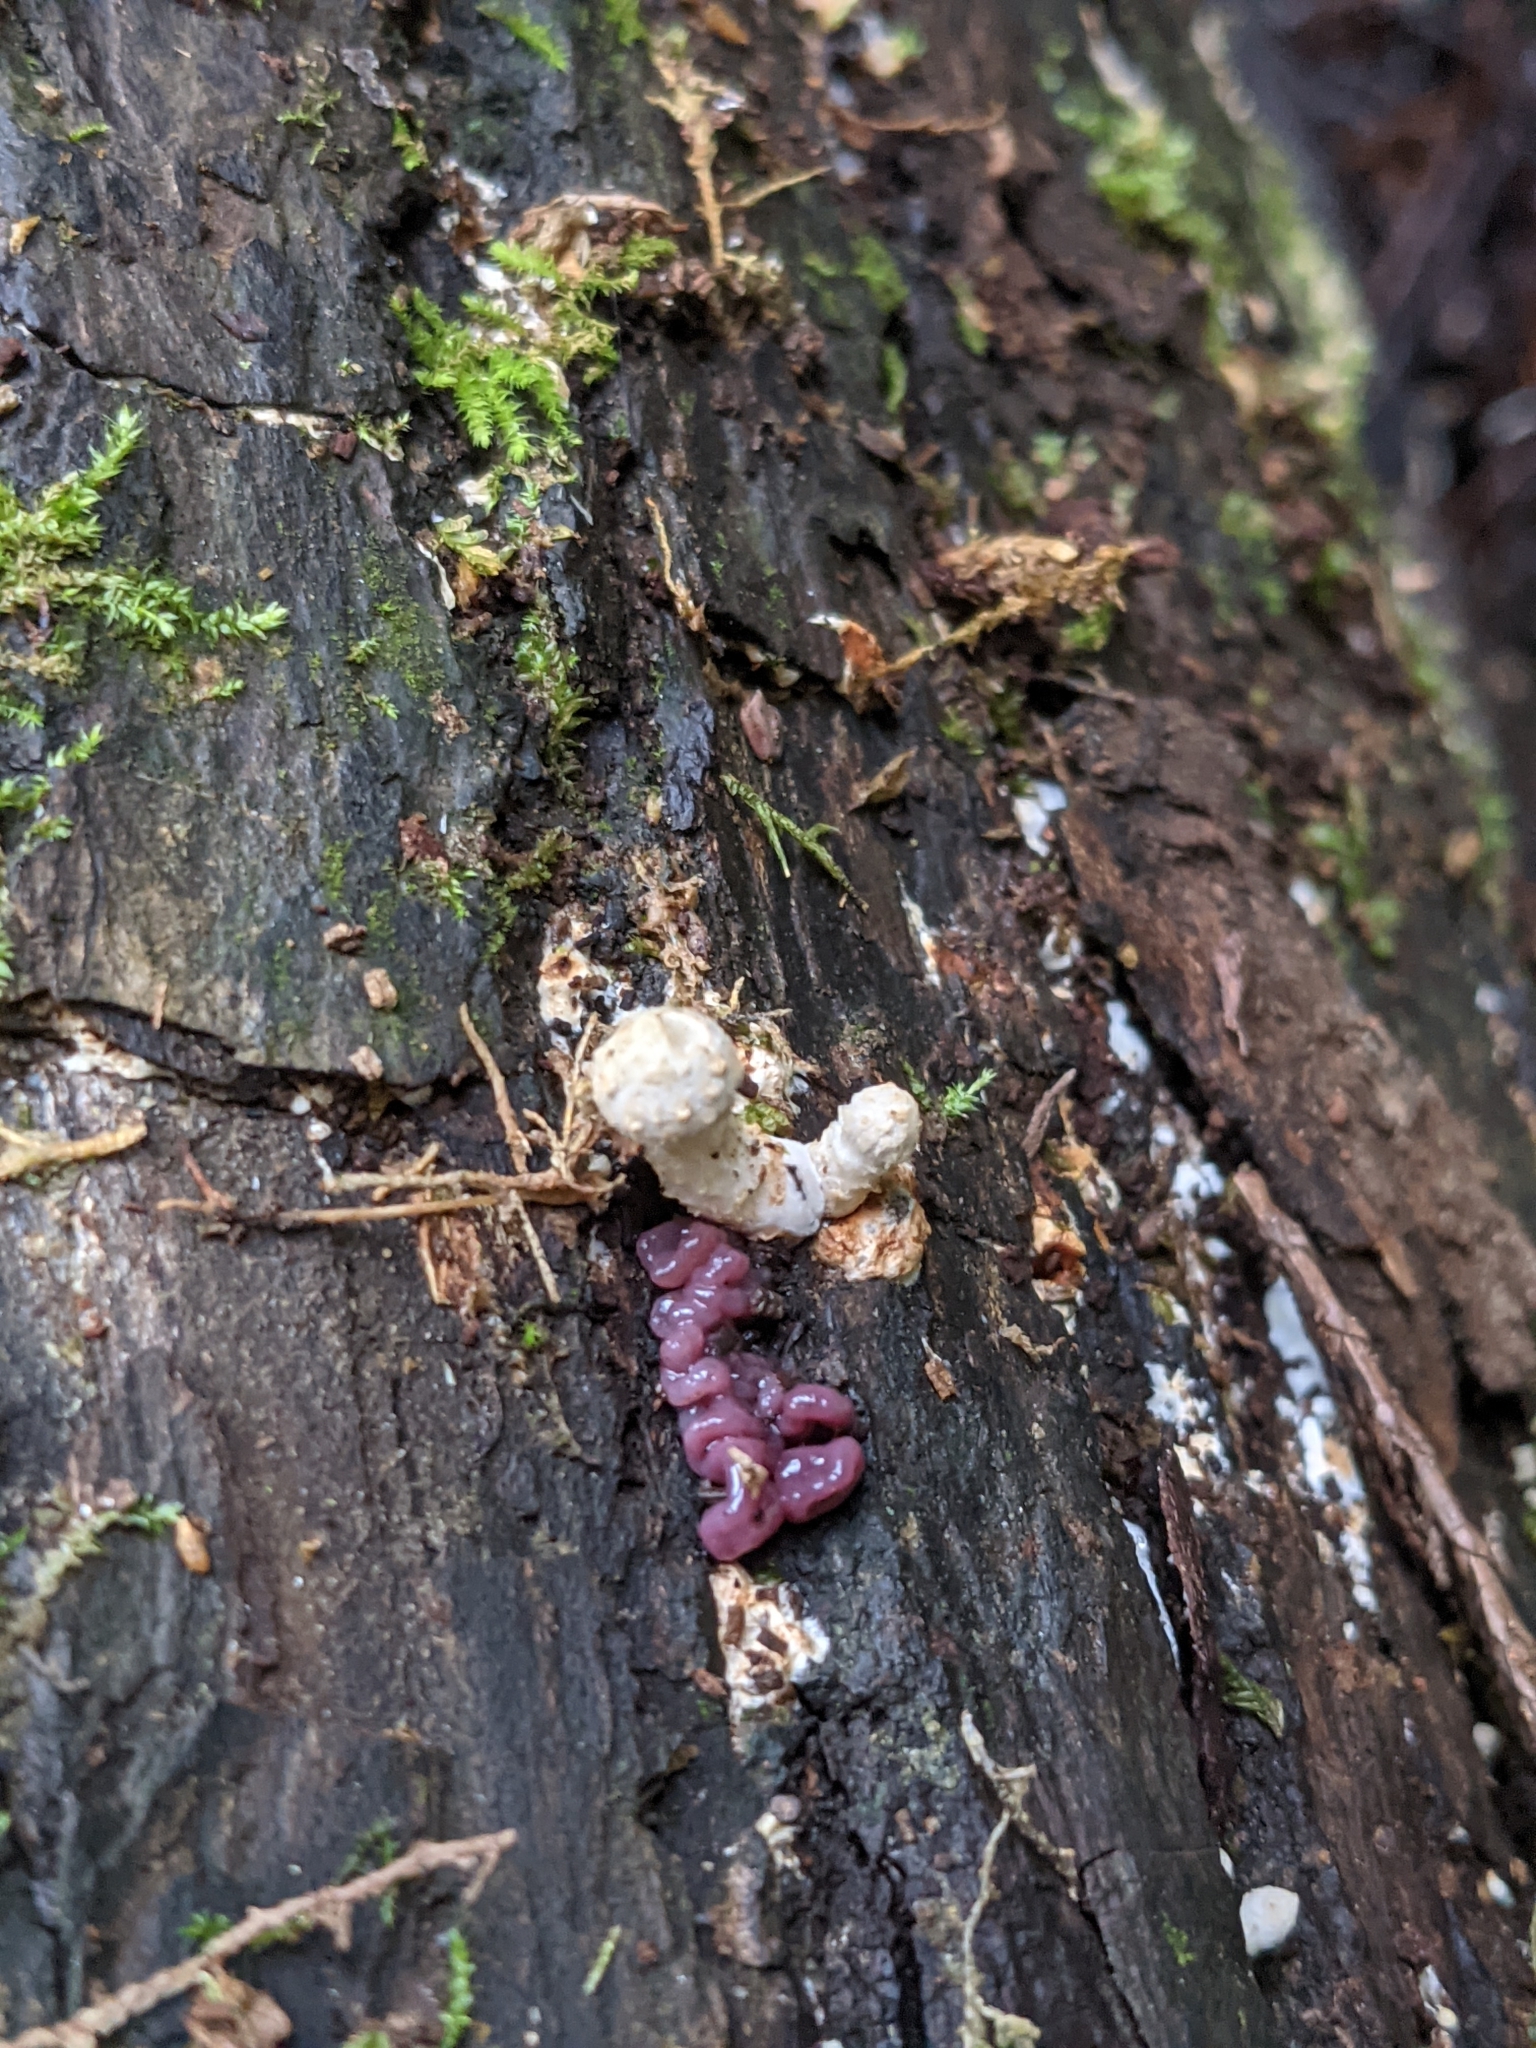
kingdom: Fungi
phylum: Ascomycota
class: Leotiomycetes
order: Helotiales
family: Gelatinodiscaceae
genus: Ascocoryne
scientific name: Ascocoryne sarcoides
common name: Purple jellydisc
